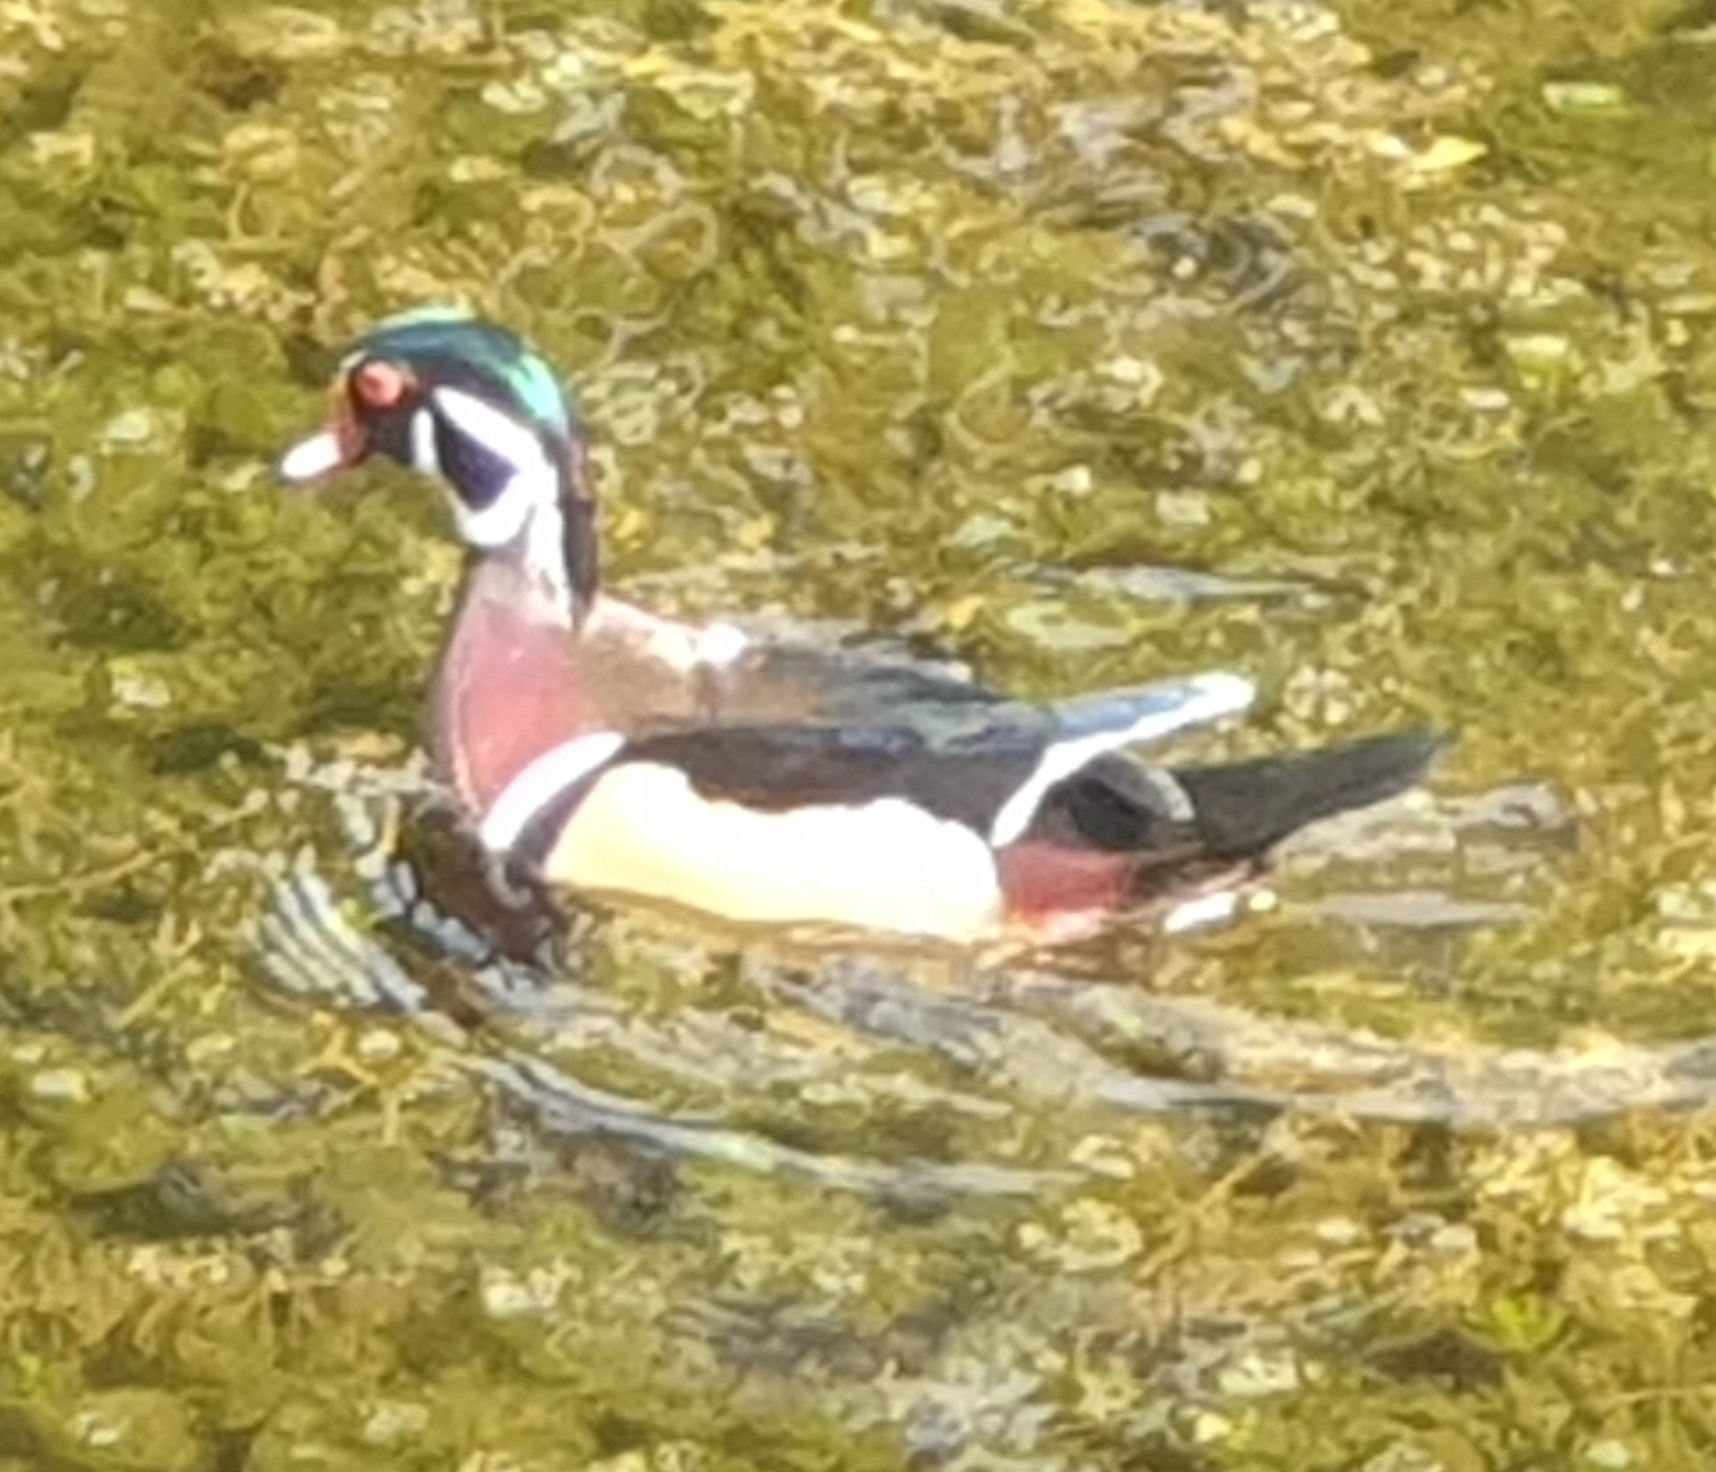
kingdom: Animalia
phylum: Chordata
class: Aves
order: Anseriformes
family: Anatidae
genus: Aix
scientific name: Aix sponsa
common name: Wood duck
